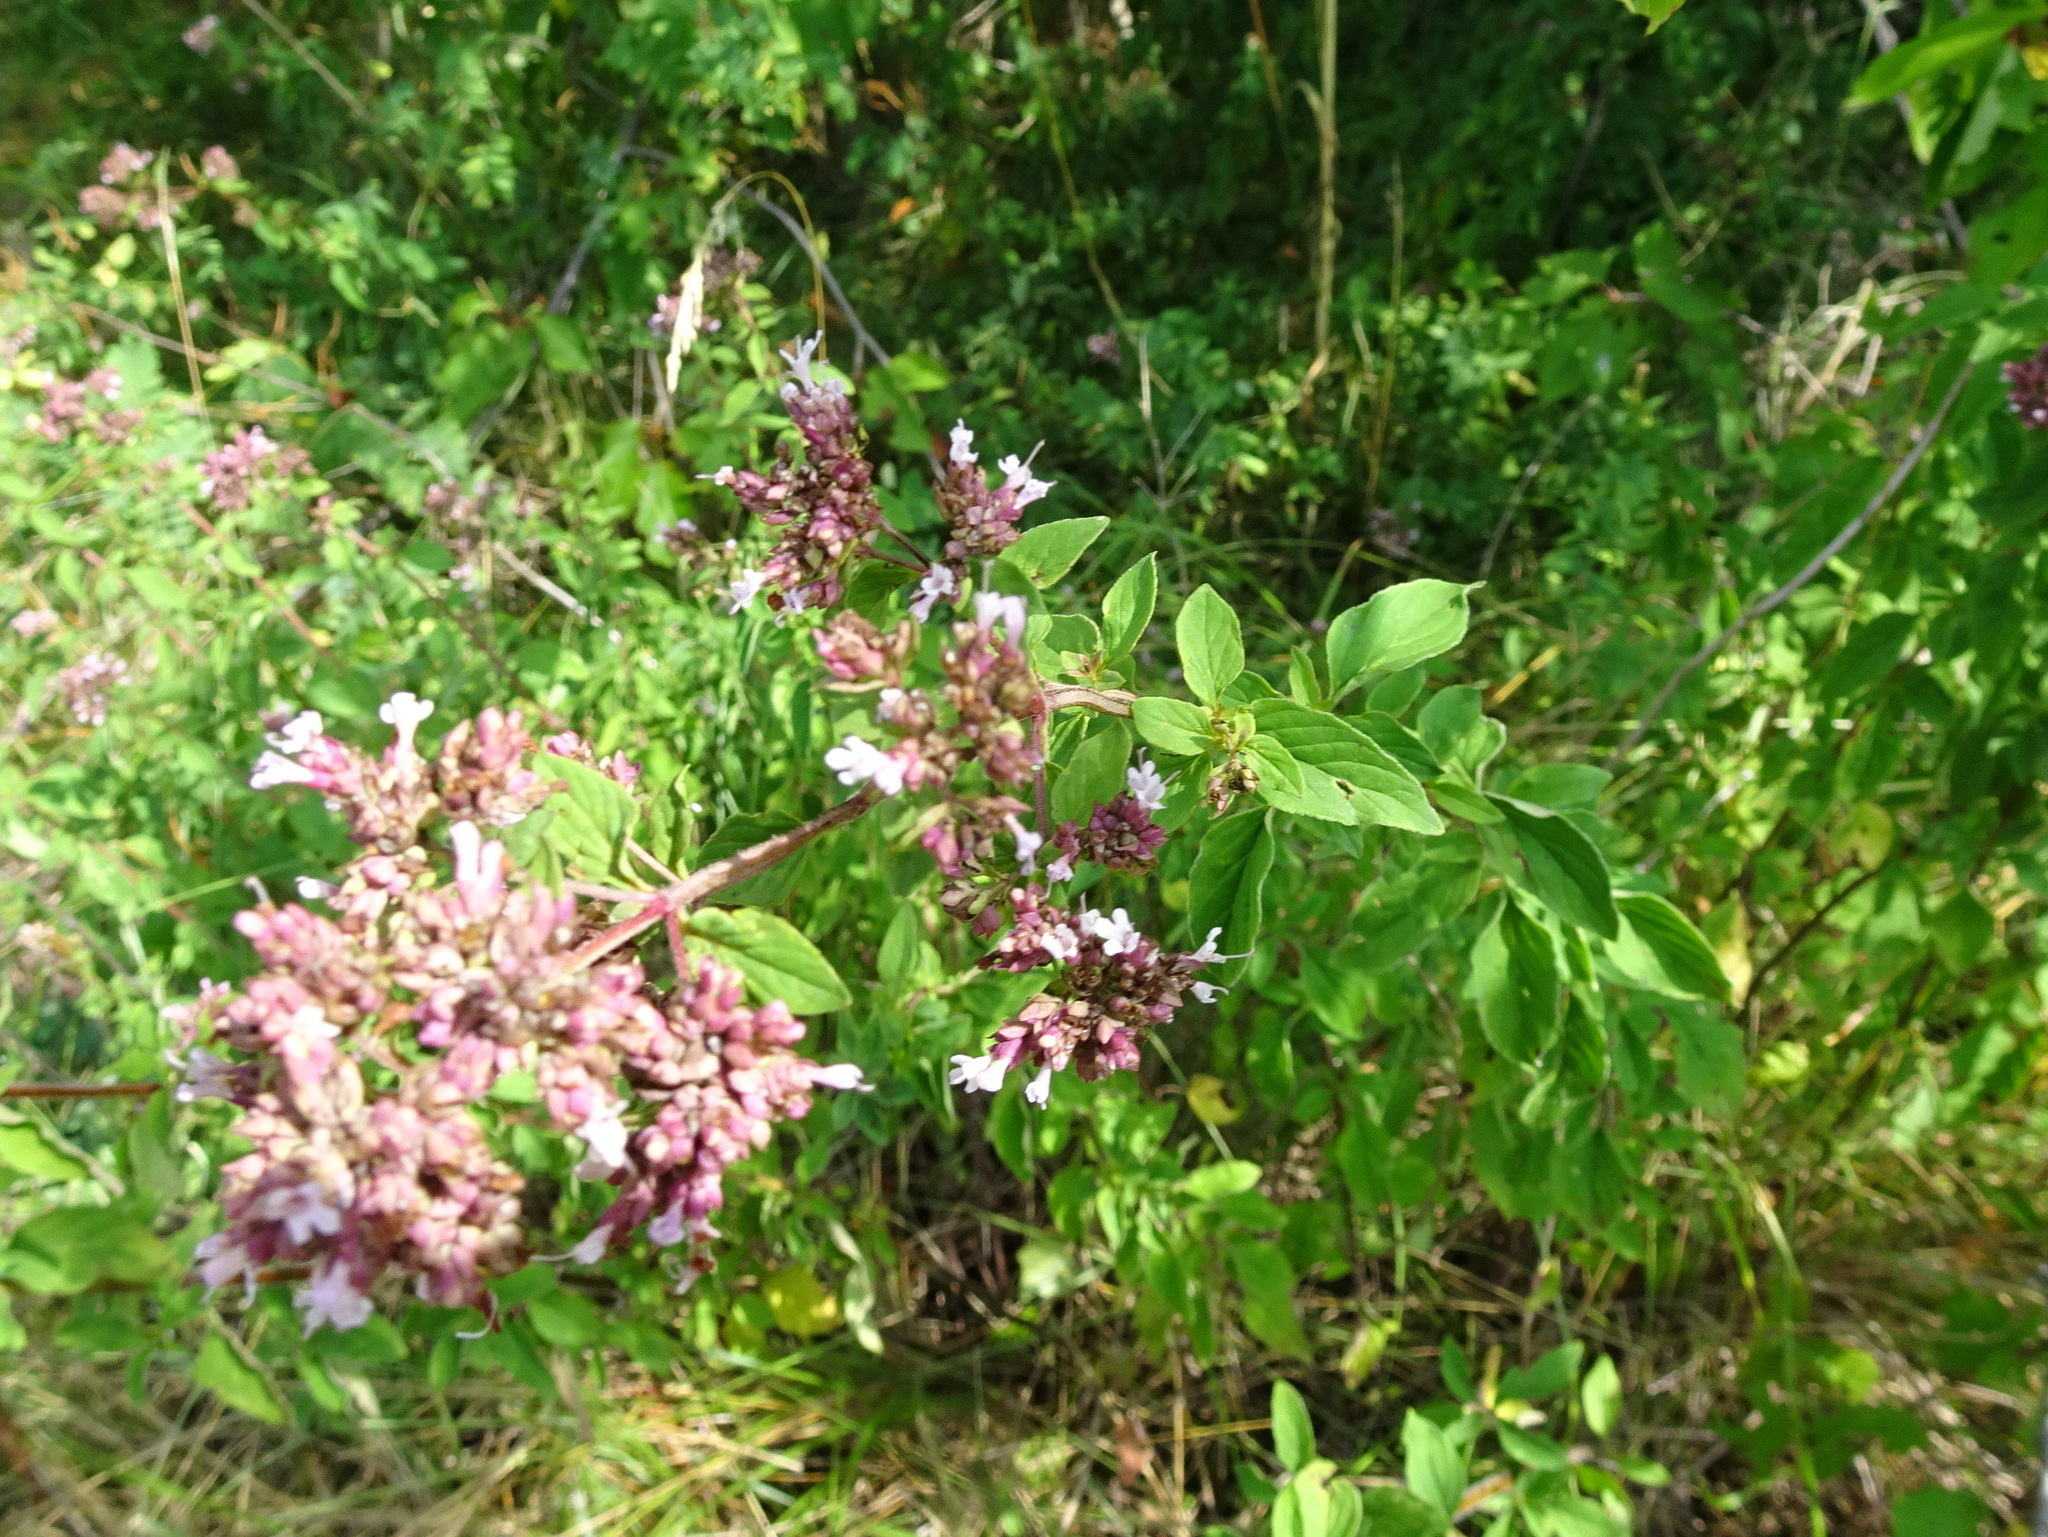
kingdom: Plantae
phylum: Tracheophyta
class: Magnoliopsida
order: Lamiales
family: Lamiaceae
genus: Origanum
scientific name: Origanum vulgare
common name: Wild marjoram
